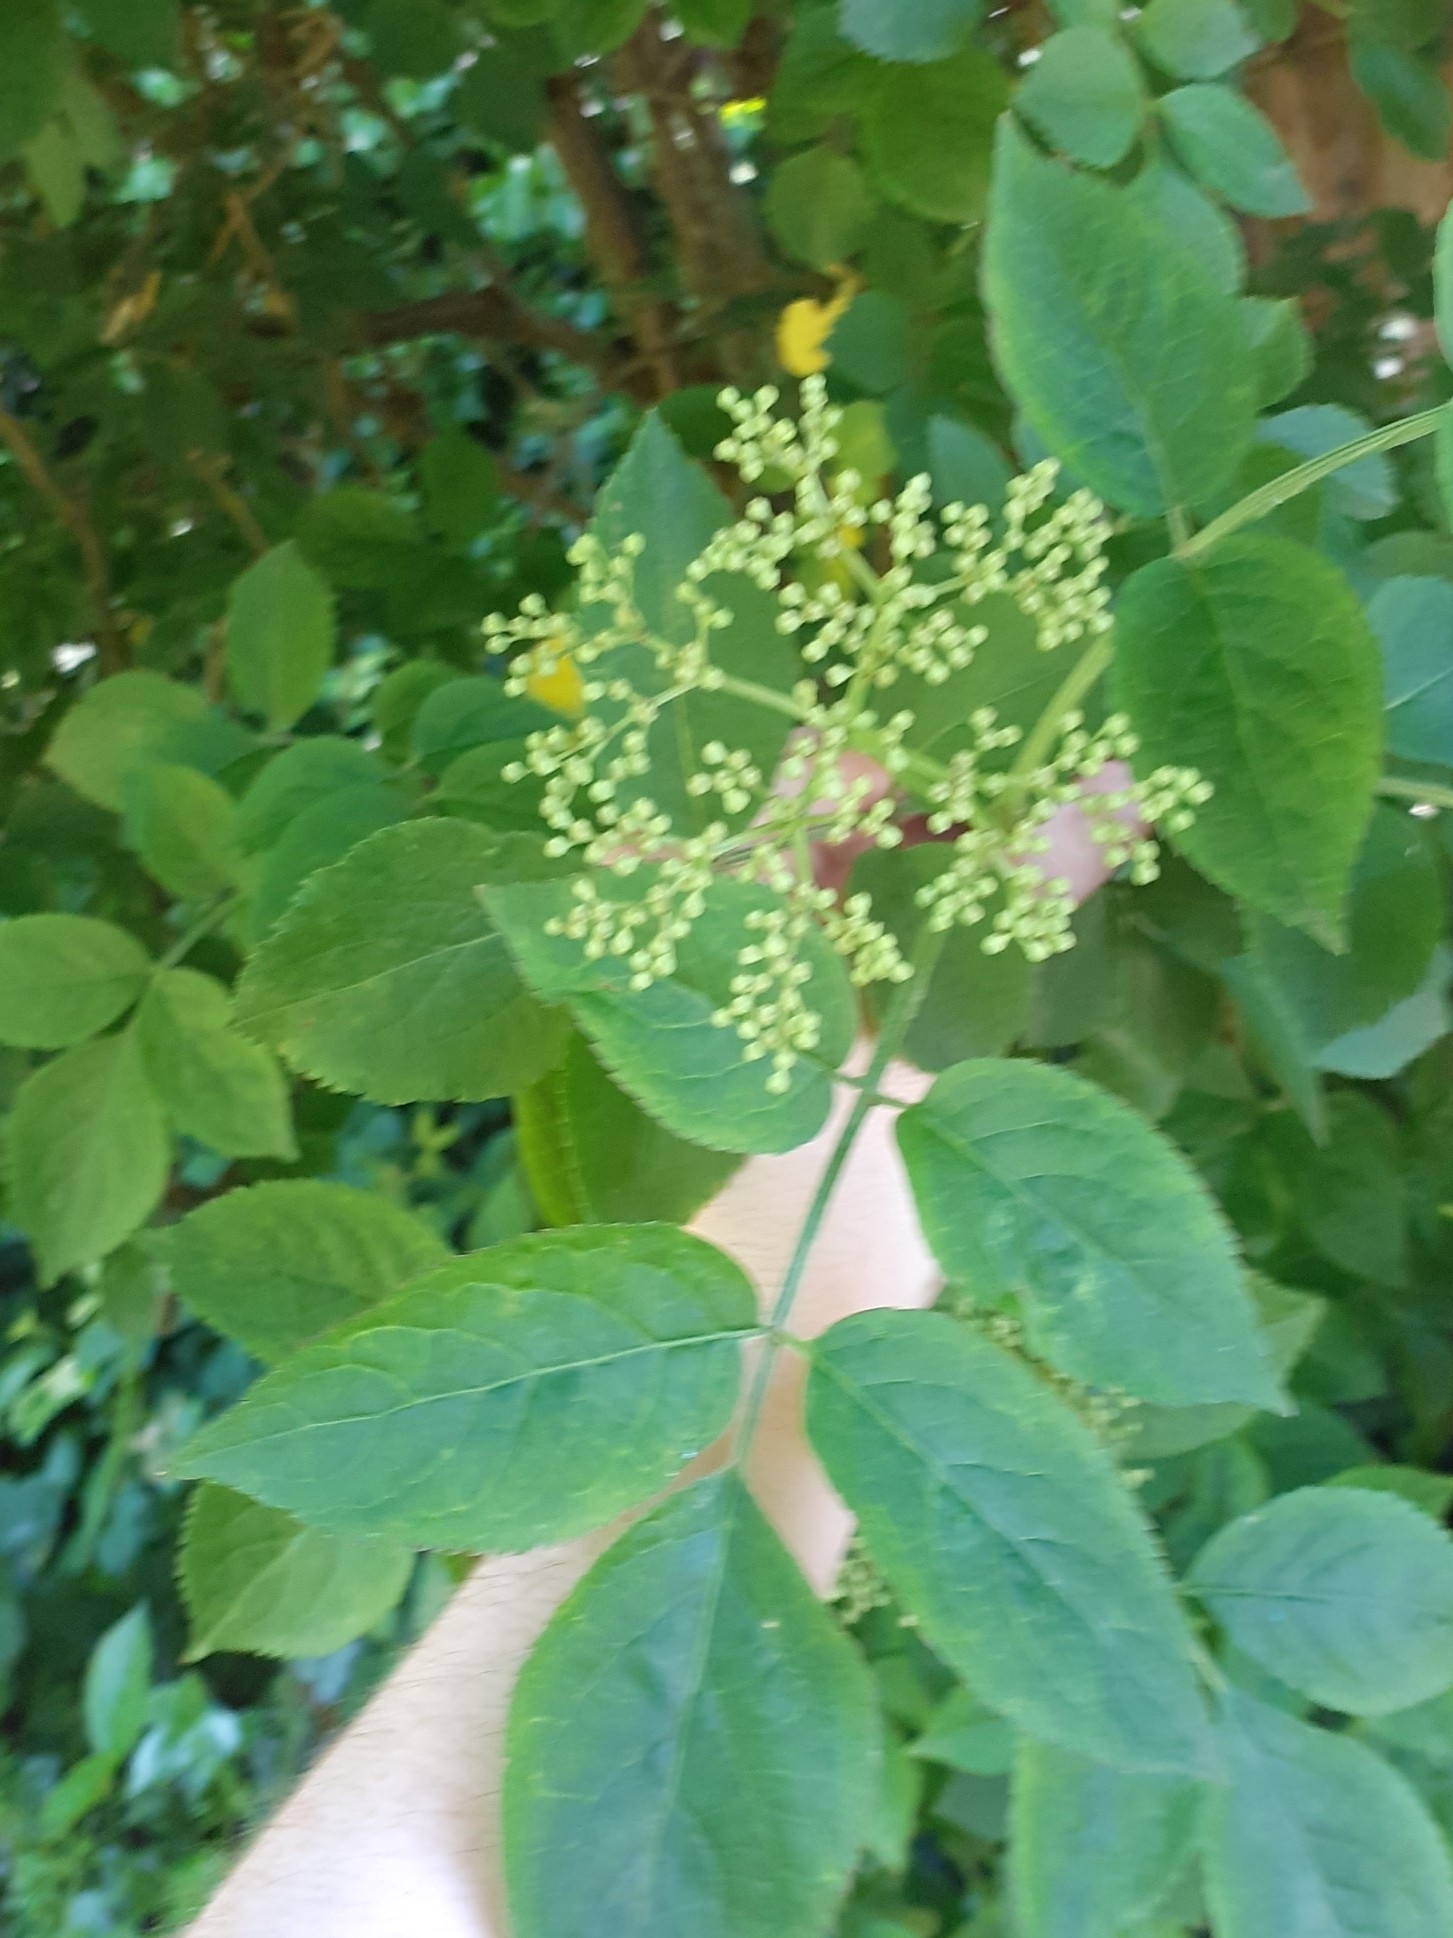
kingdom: Plantae
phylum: Tracheophyta
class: Magnoliopsida
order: Dipsacales
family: Viburnaceae
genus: Sambucus
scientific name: Sambucus nigra
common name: Elder
